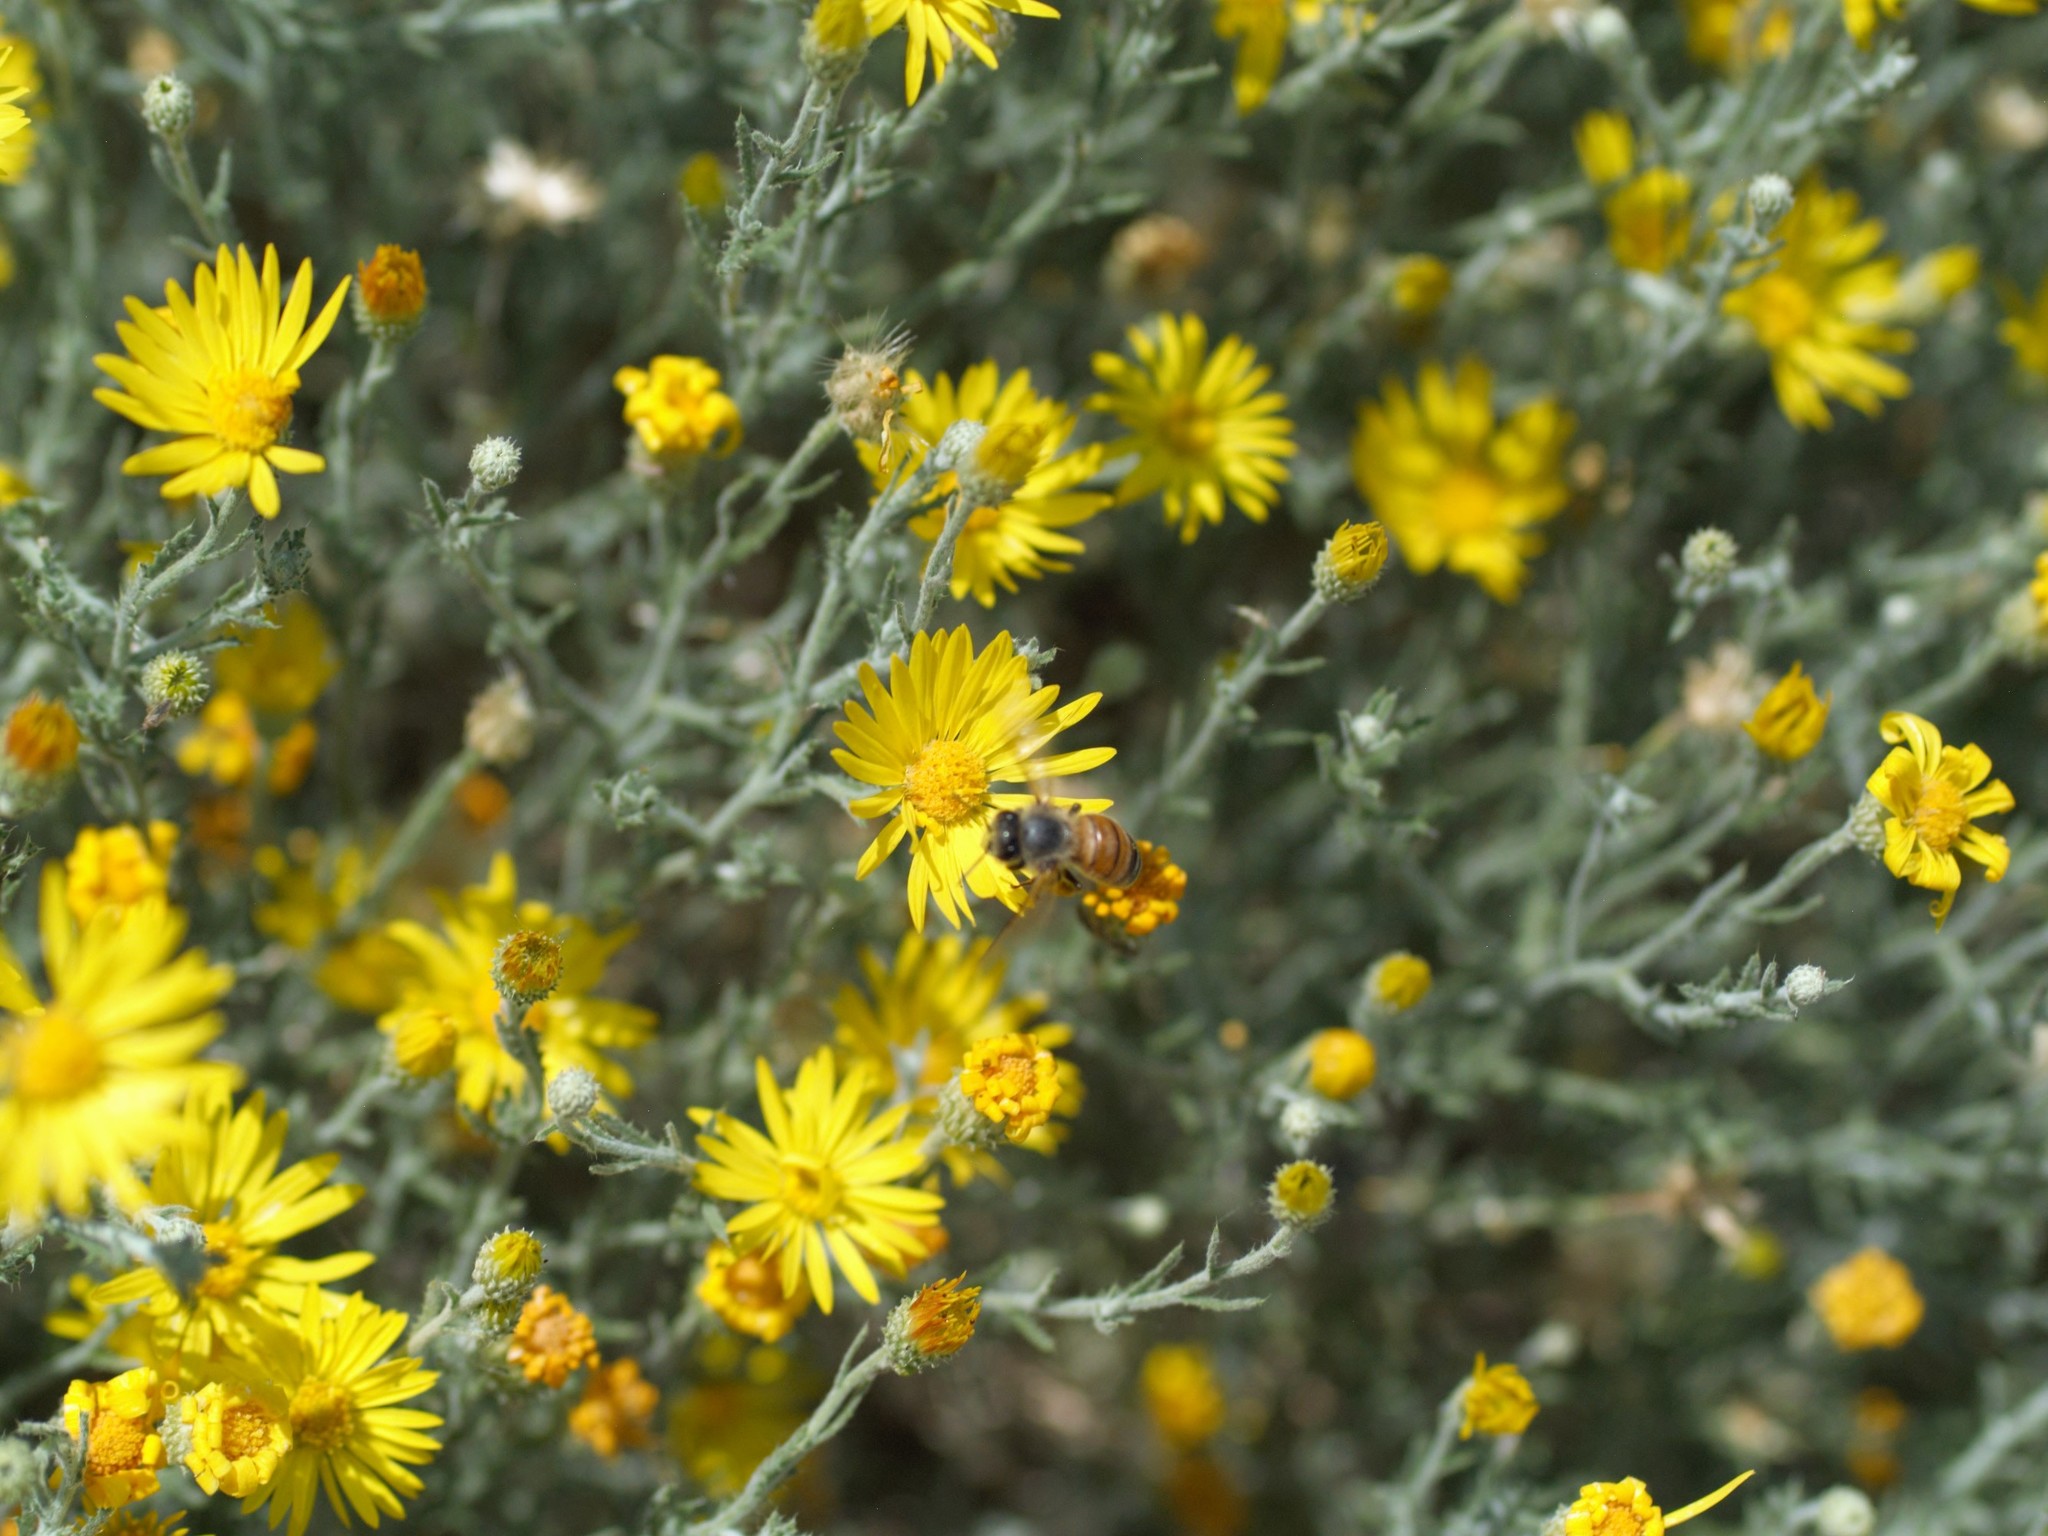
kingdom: Animalia
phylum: Arthropoda
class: Insecta
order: Hymenoptera
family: Apidae
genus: Apis
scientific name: Apis mellifera
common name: Honey bee
